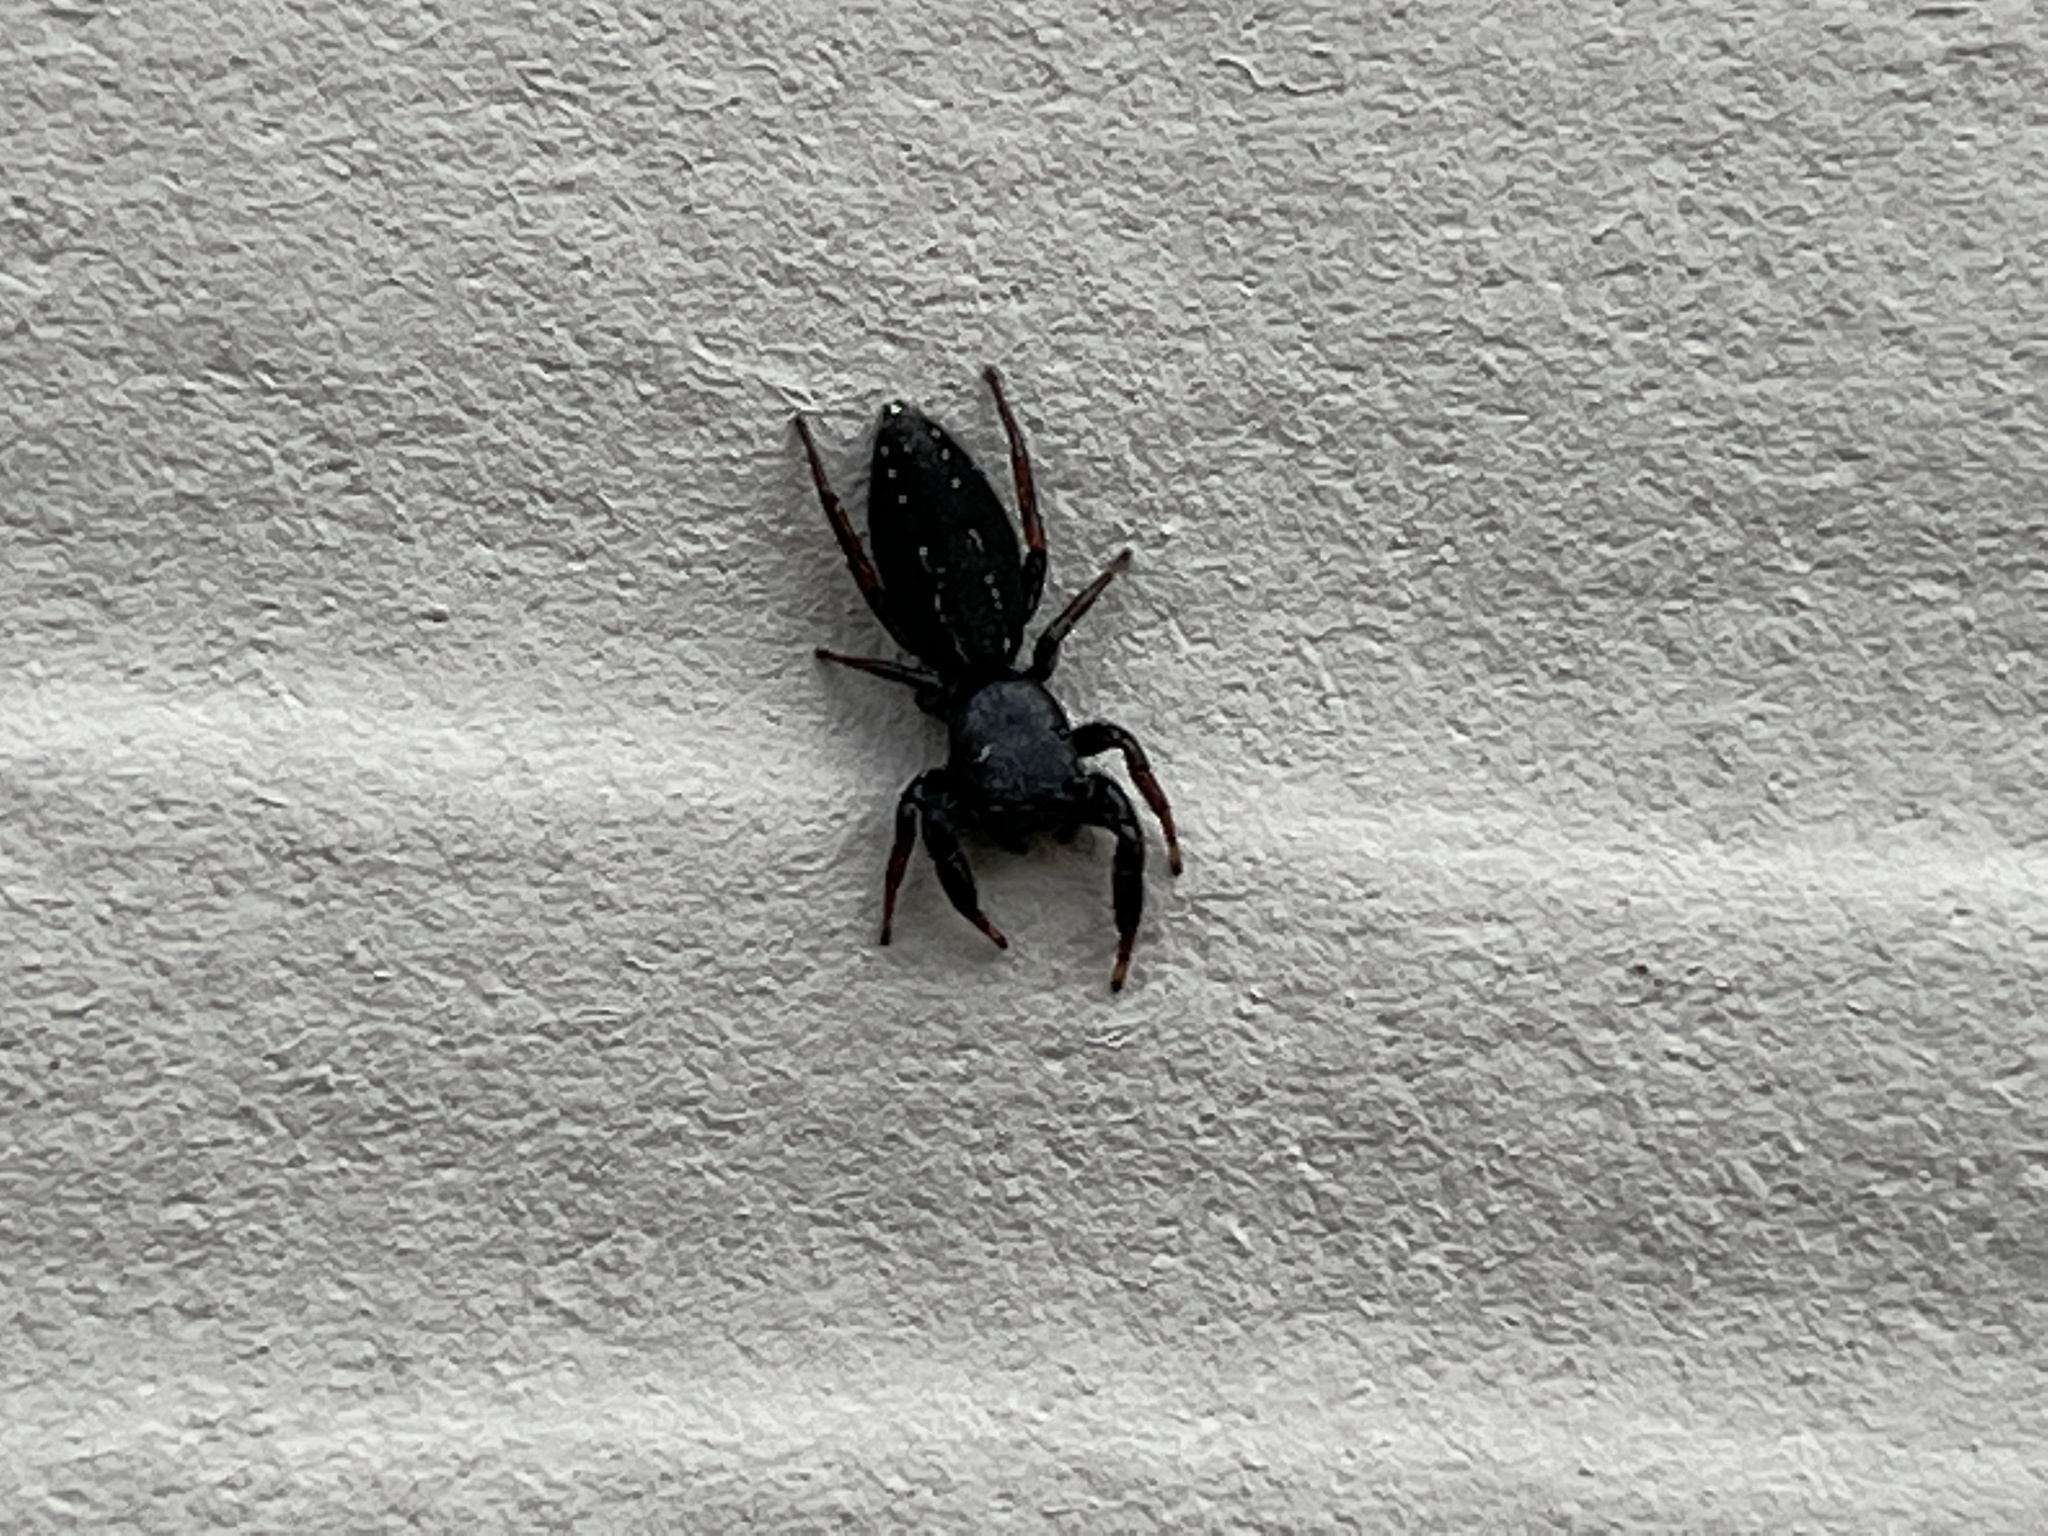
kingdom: Animalia
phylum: Arthropoda
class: Arachnida
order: Araneae
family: Salticidae
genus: Metacyrba
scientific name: Metacyrba taeniola
